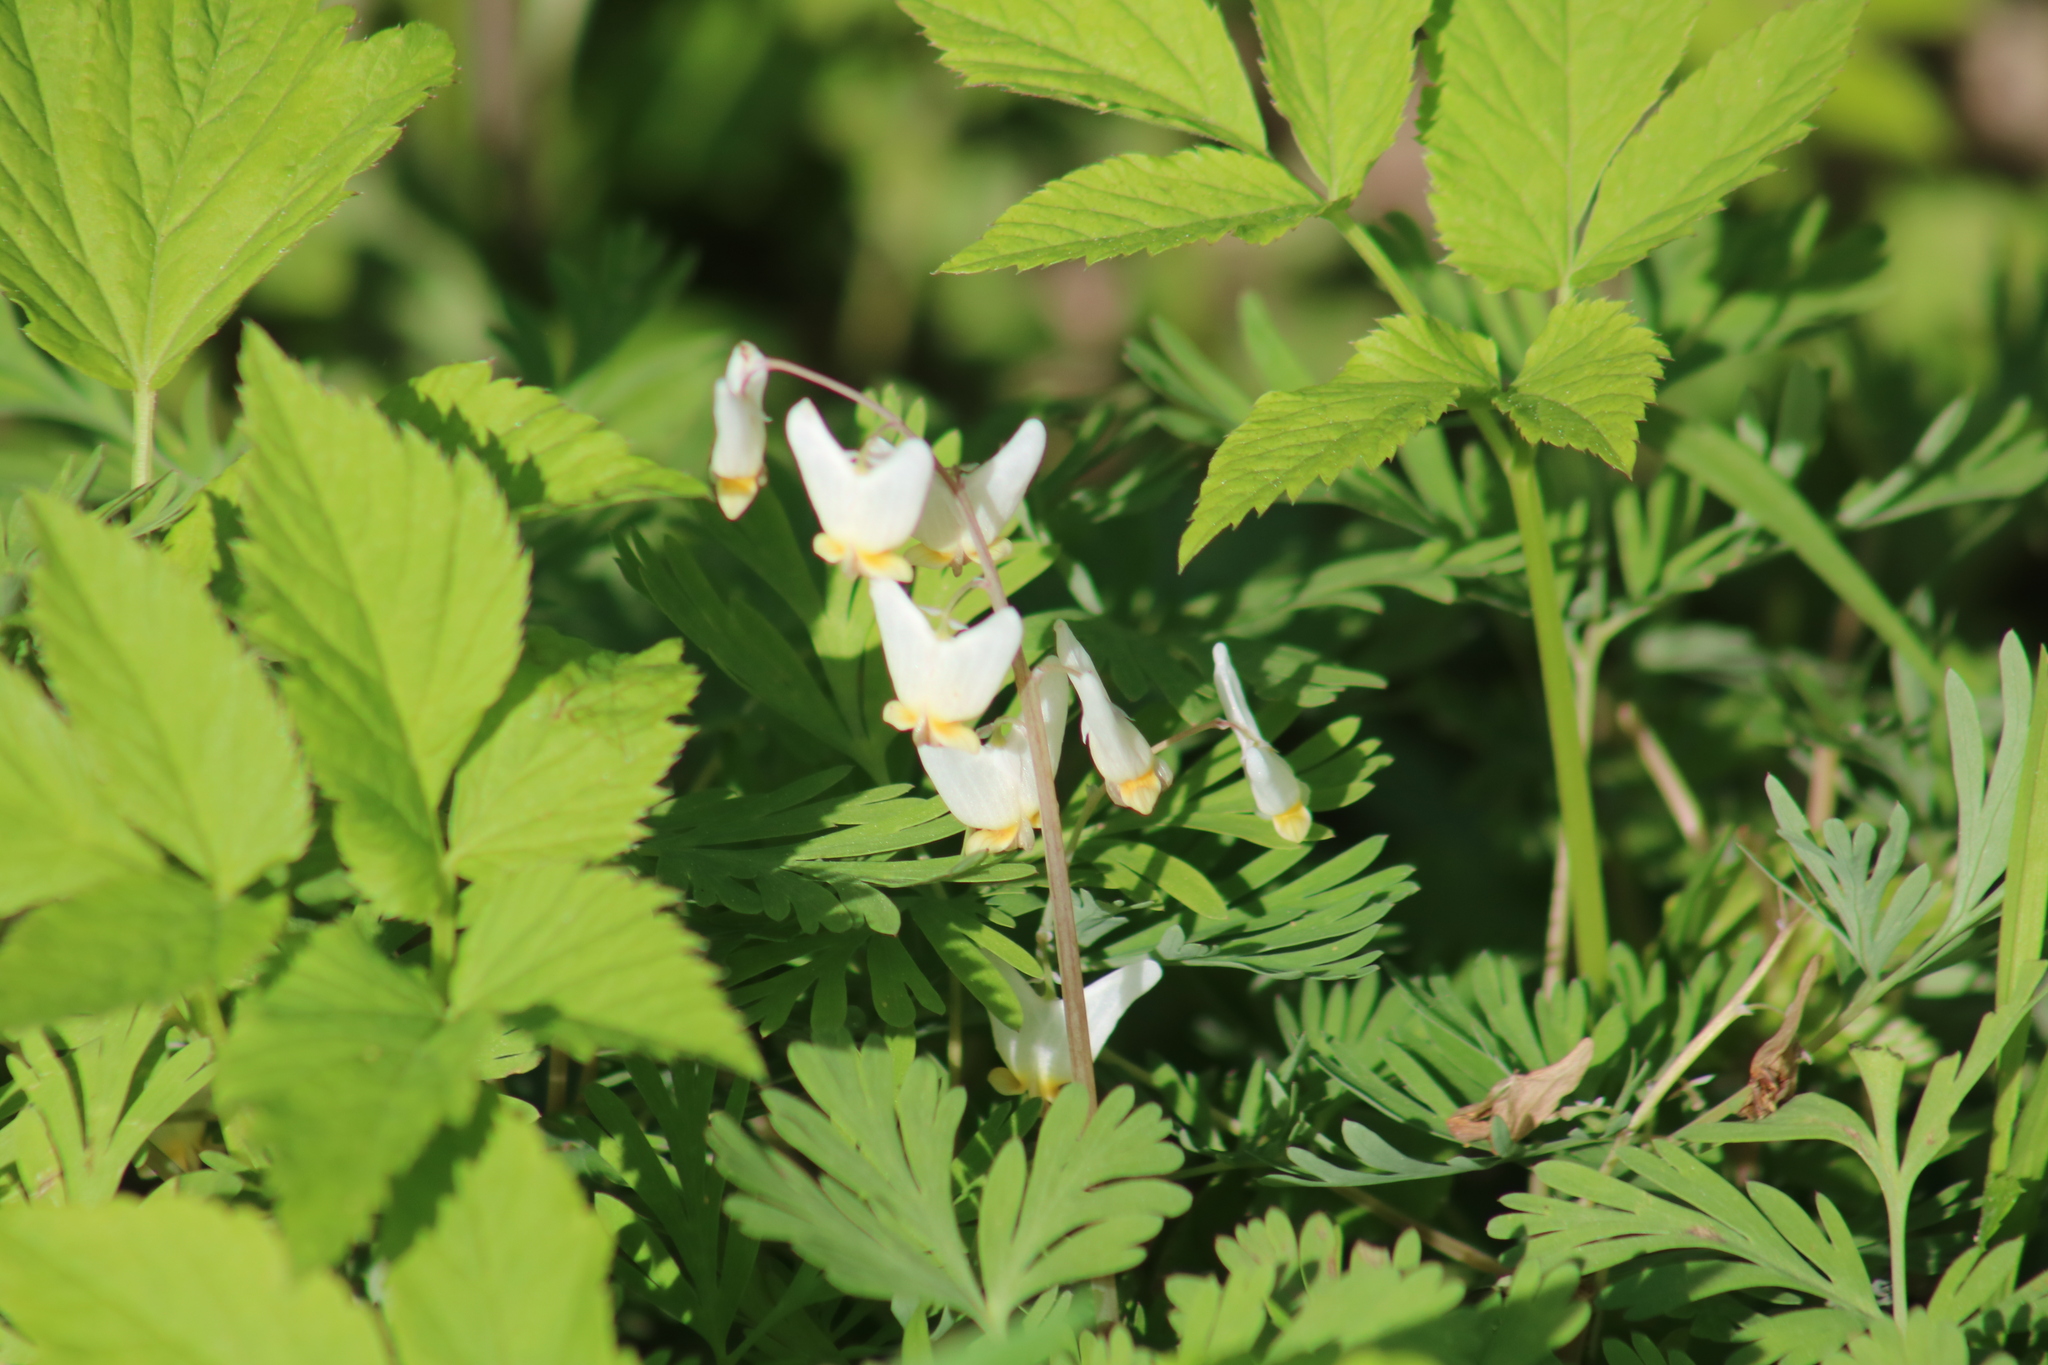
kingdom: Plantae
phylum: Tracheophyta
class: Magnoliopsida
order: Ranunculales
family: Papaveraceae
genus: Dicentra
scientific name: Dicentra cucullaria
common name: Dutchman's breeches
